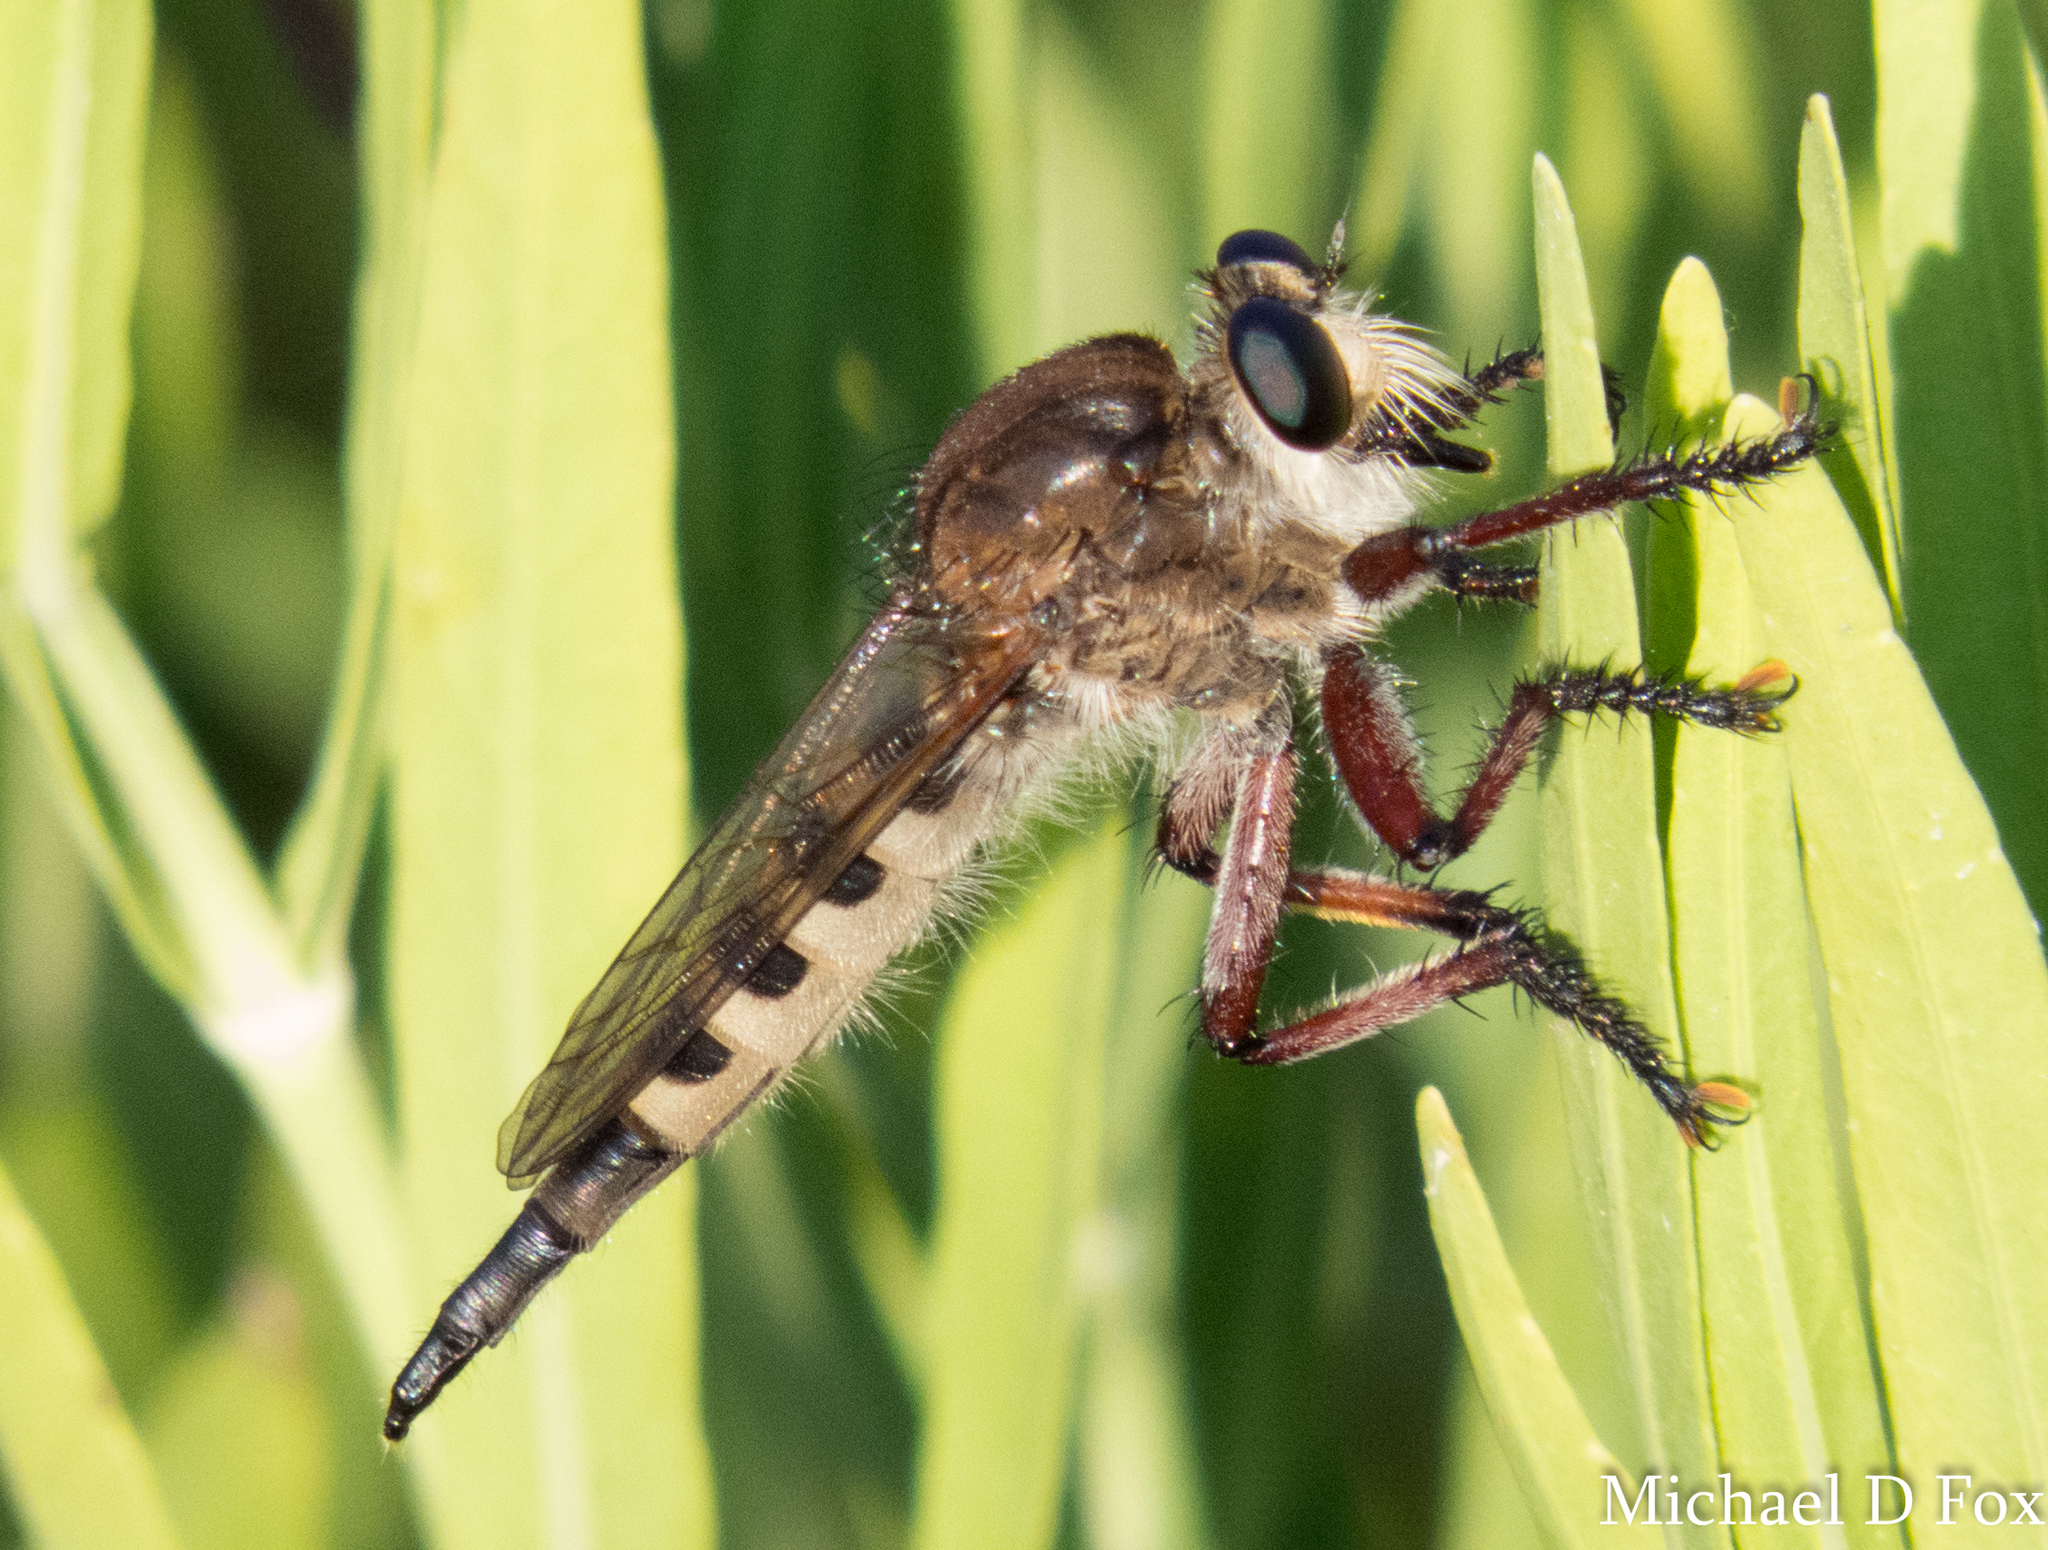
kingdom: Animalia
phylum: Arthropoda
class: Insecta
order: Diptera
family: Asilidae
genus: Promachus
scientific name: Promachus hinei
